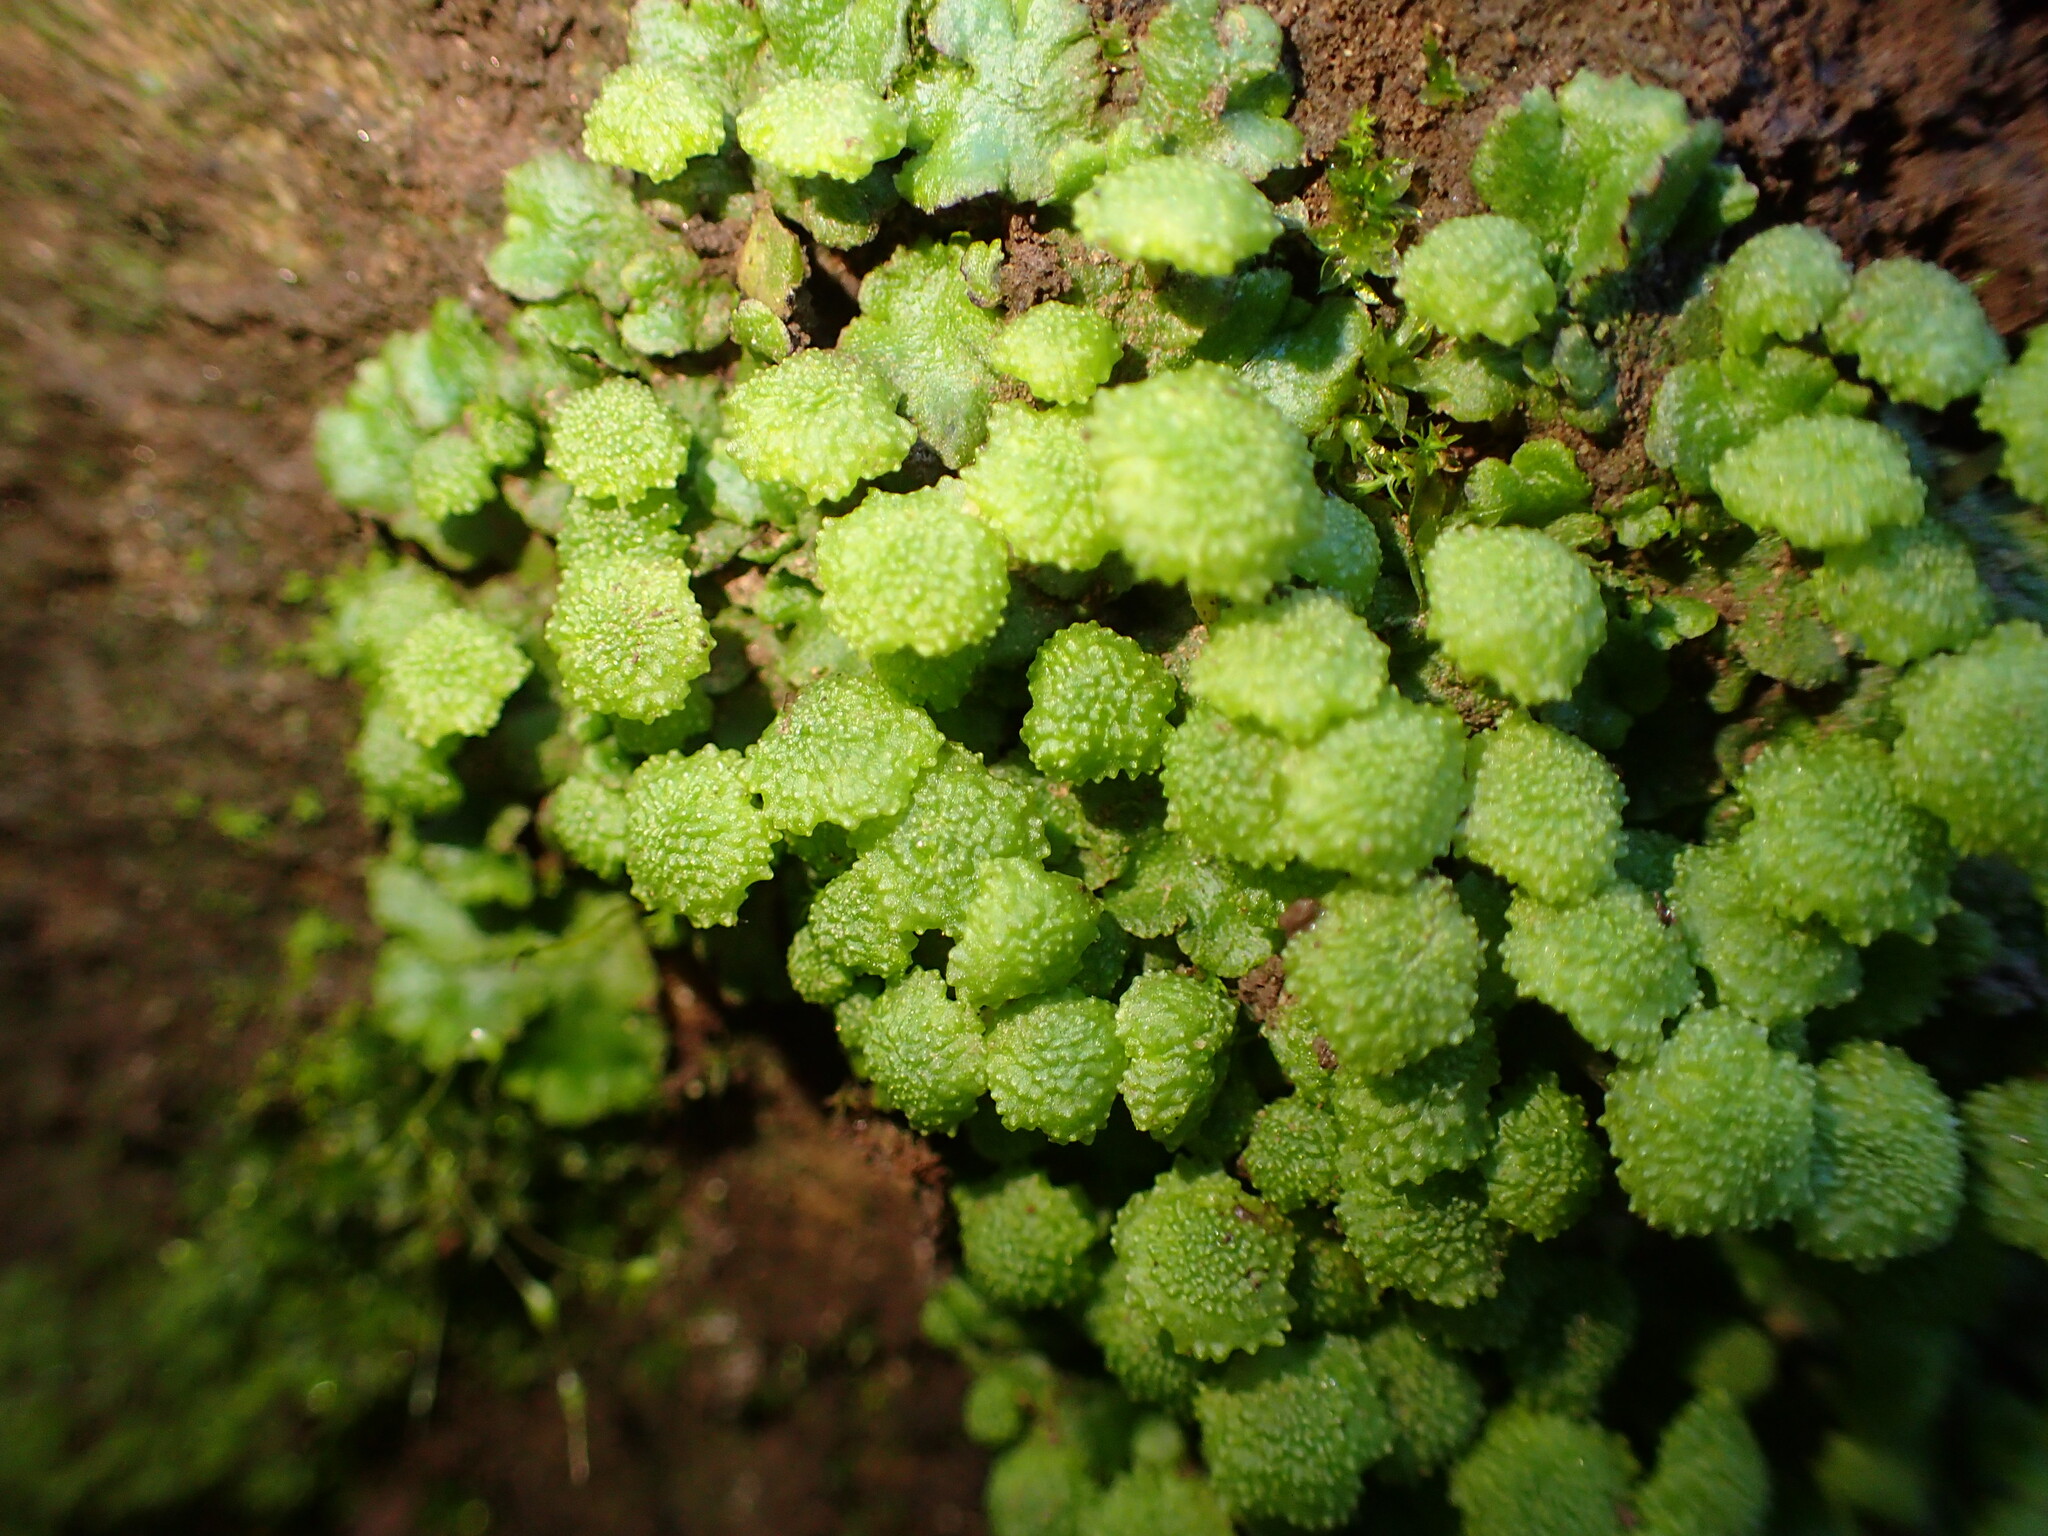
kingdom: Plantae
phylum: Marchantiophyta
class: Marchantiopsida
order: Marchantiales
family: Aytoniaceae
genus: Cryptomitrium
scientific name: Cryptomitrium tenerum
